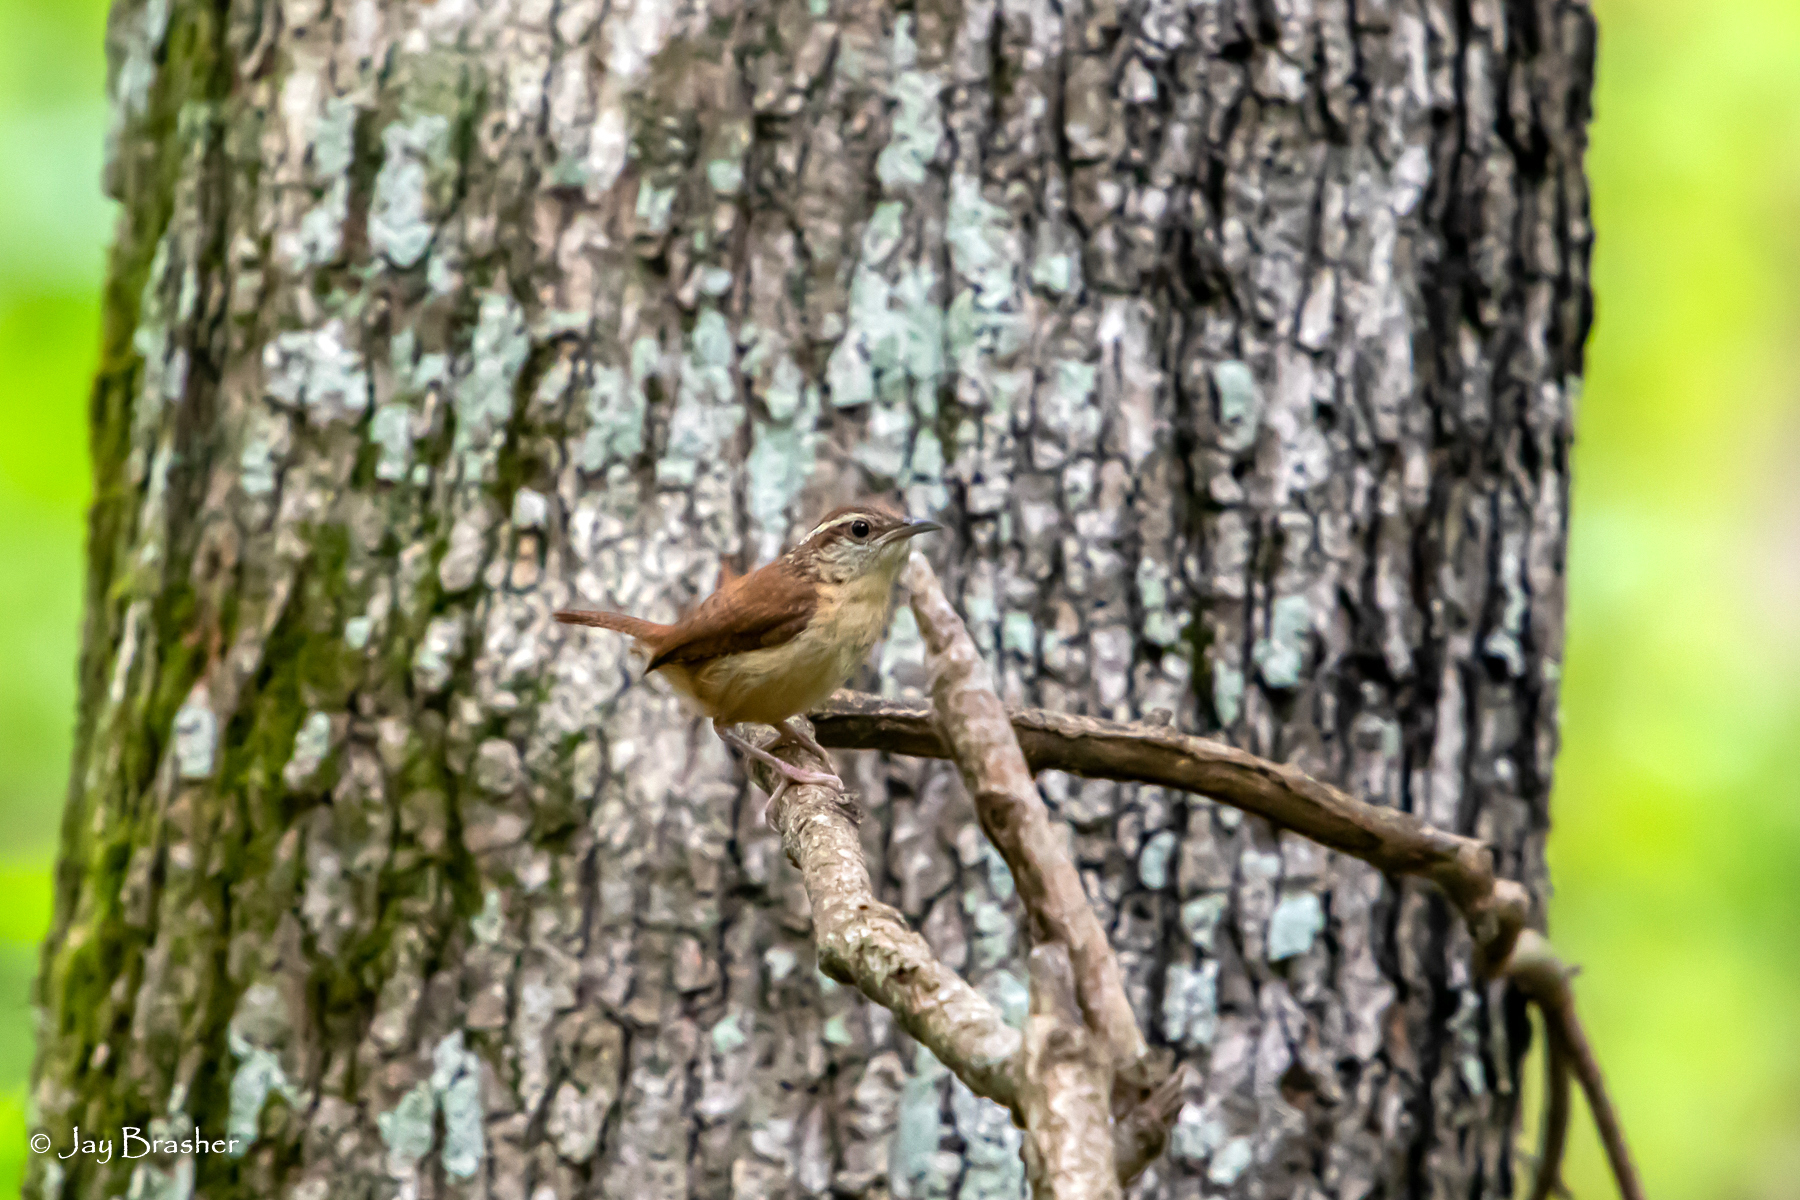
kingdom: Animalia
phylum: Chordata
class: Aves
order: Passeriformes
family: Troglodytidae
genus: Thryothorus
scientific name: Thryothorus ludovicianus
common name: Carolina wren
